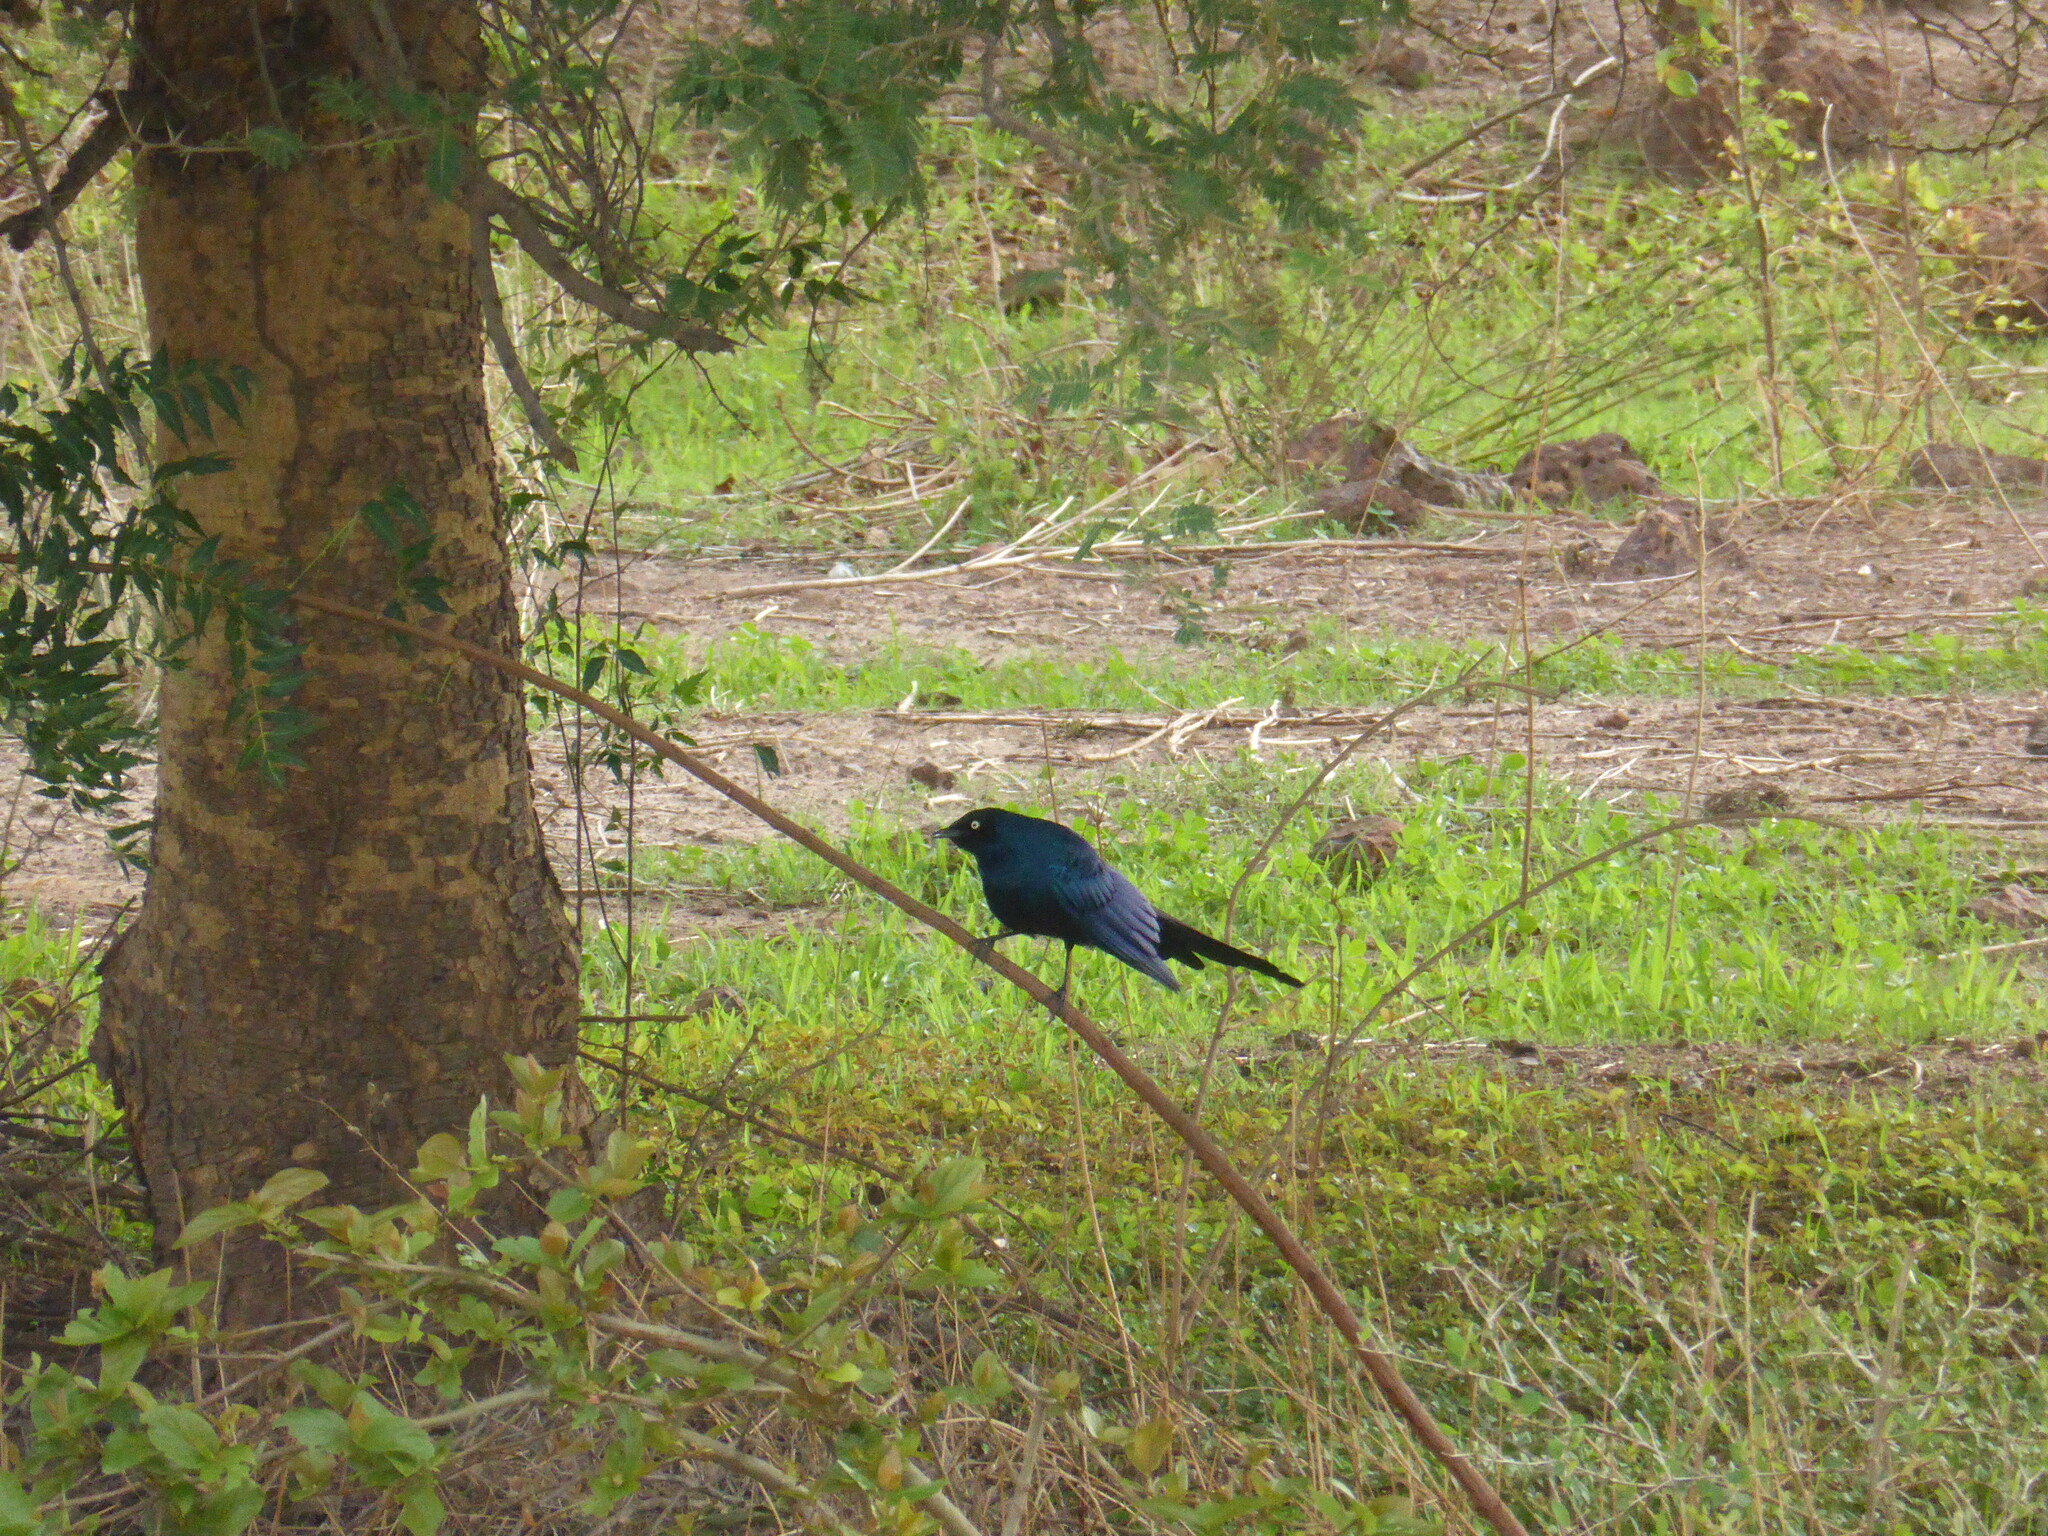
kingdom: Animalia
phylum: Chordata
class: Aves
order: Passeriformes
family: Sturnidae
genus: Lamprotornis
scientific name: Lamprotornis caudatus
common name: Long-tailed glossy starling
